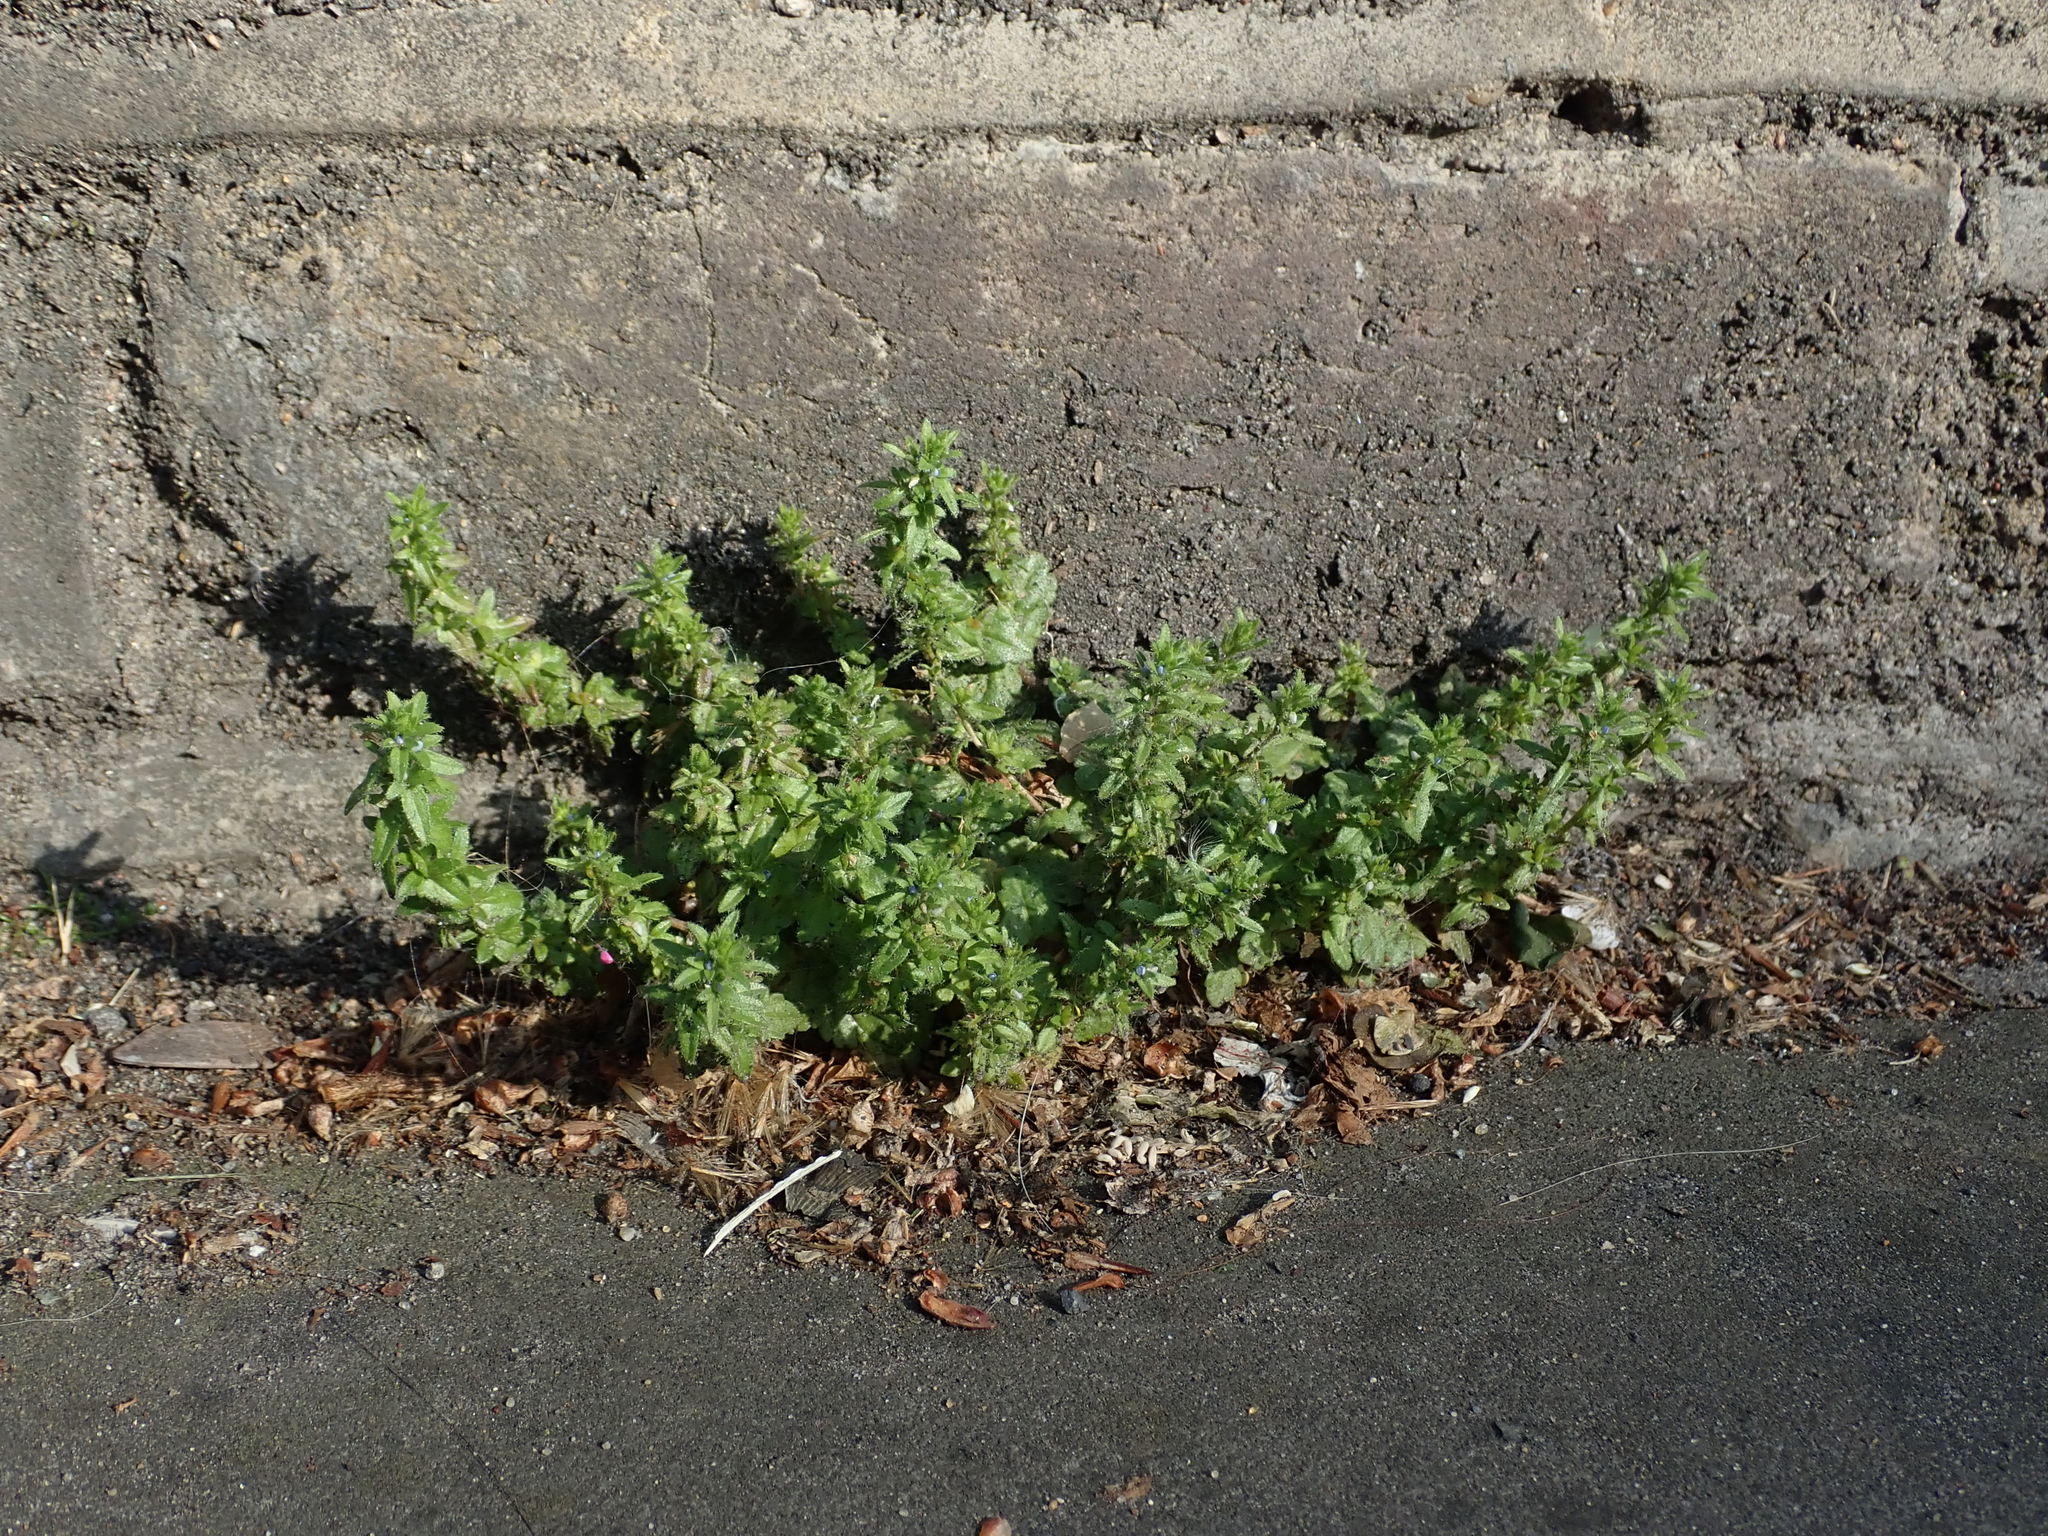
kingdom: Plantae
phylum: Tracheophyta
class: Magnoliopsida
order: Lamiales
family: Plantaginaceae
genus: Veronica
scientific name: Veronica arvensis
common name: Corn speedwell
